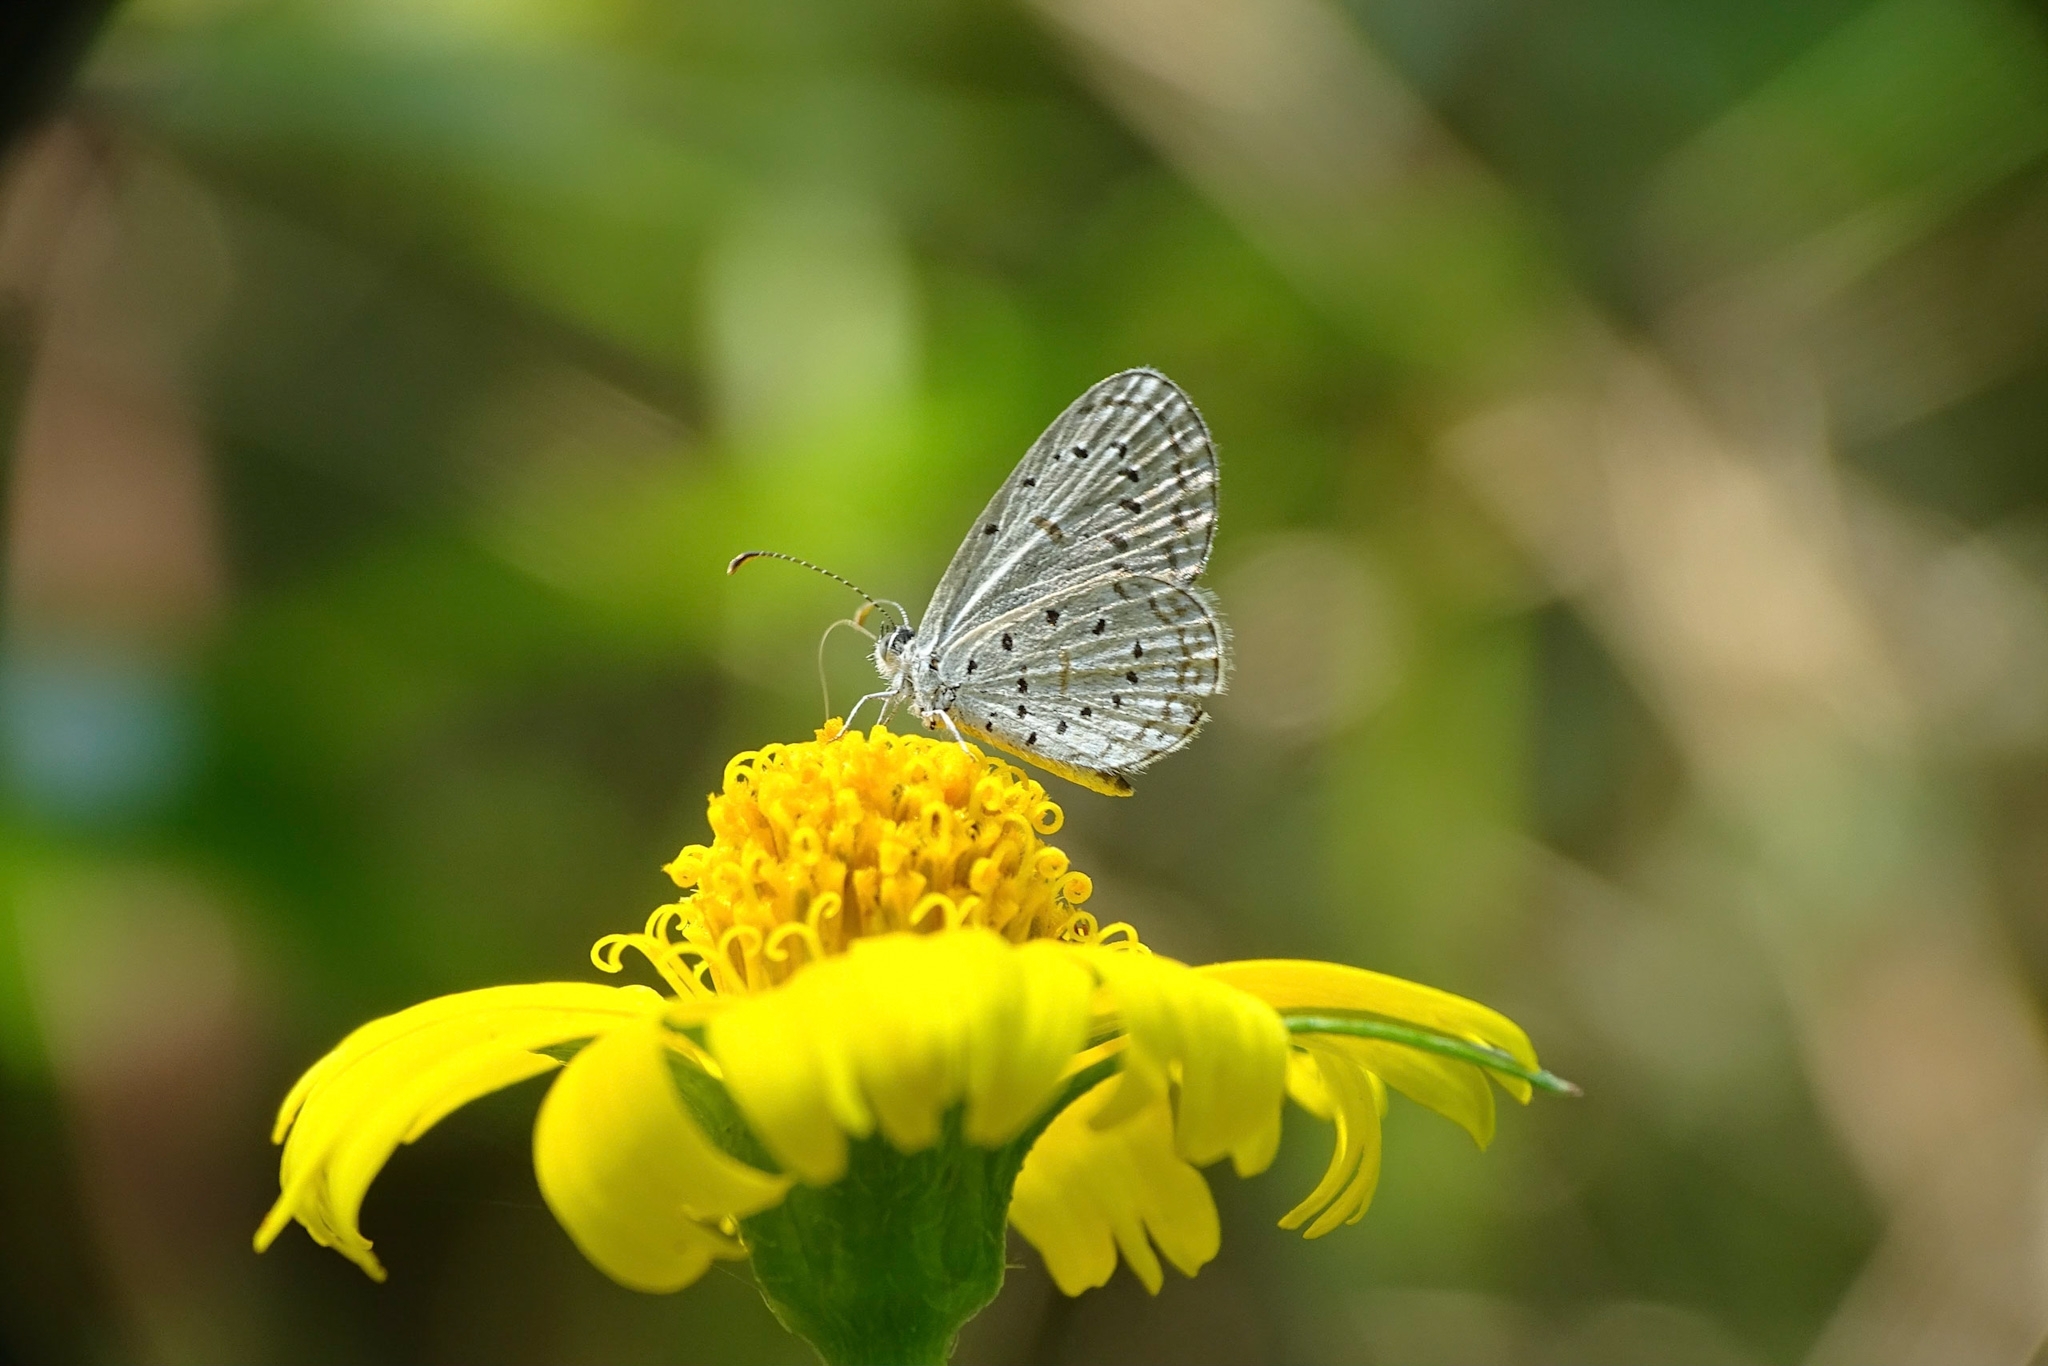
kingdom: Animalia
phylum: Arthropoda
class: Insecta
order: Lepidoptera
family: Lycaenidae
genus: Zizula
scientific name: Zizula hylax
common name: Gaika blue
